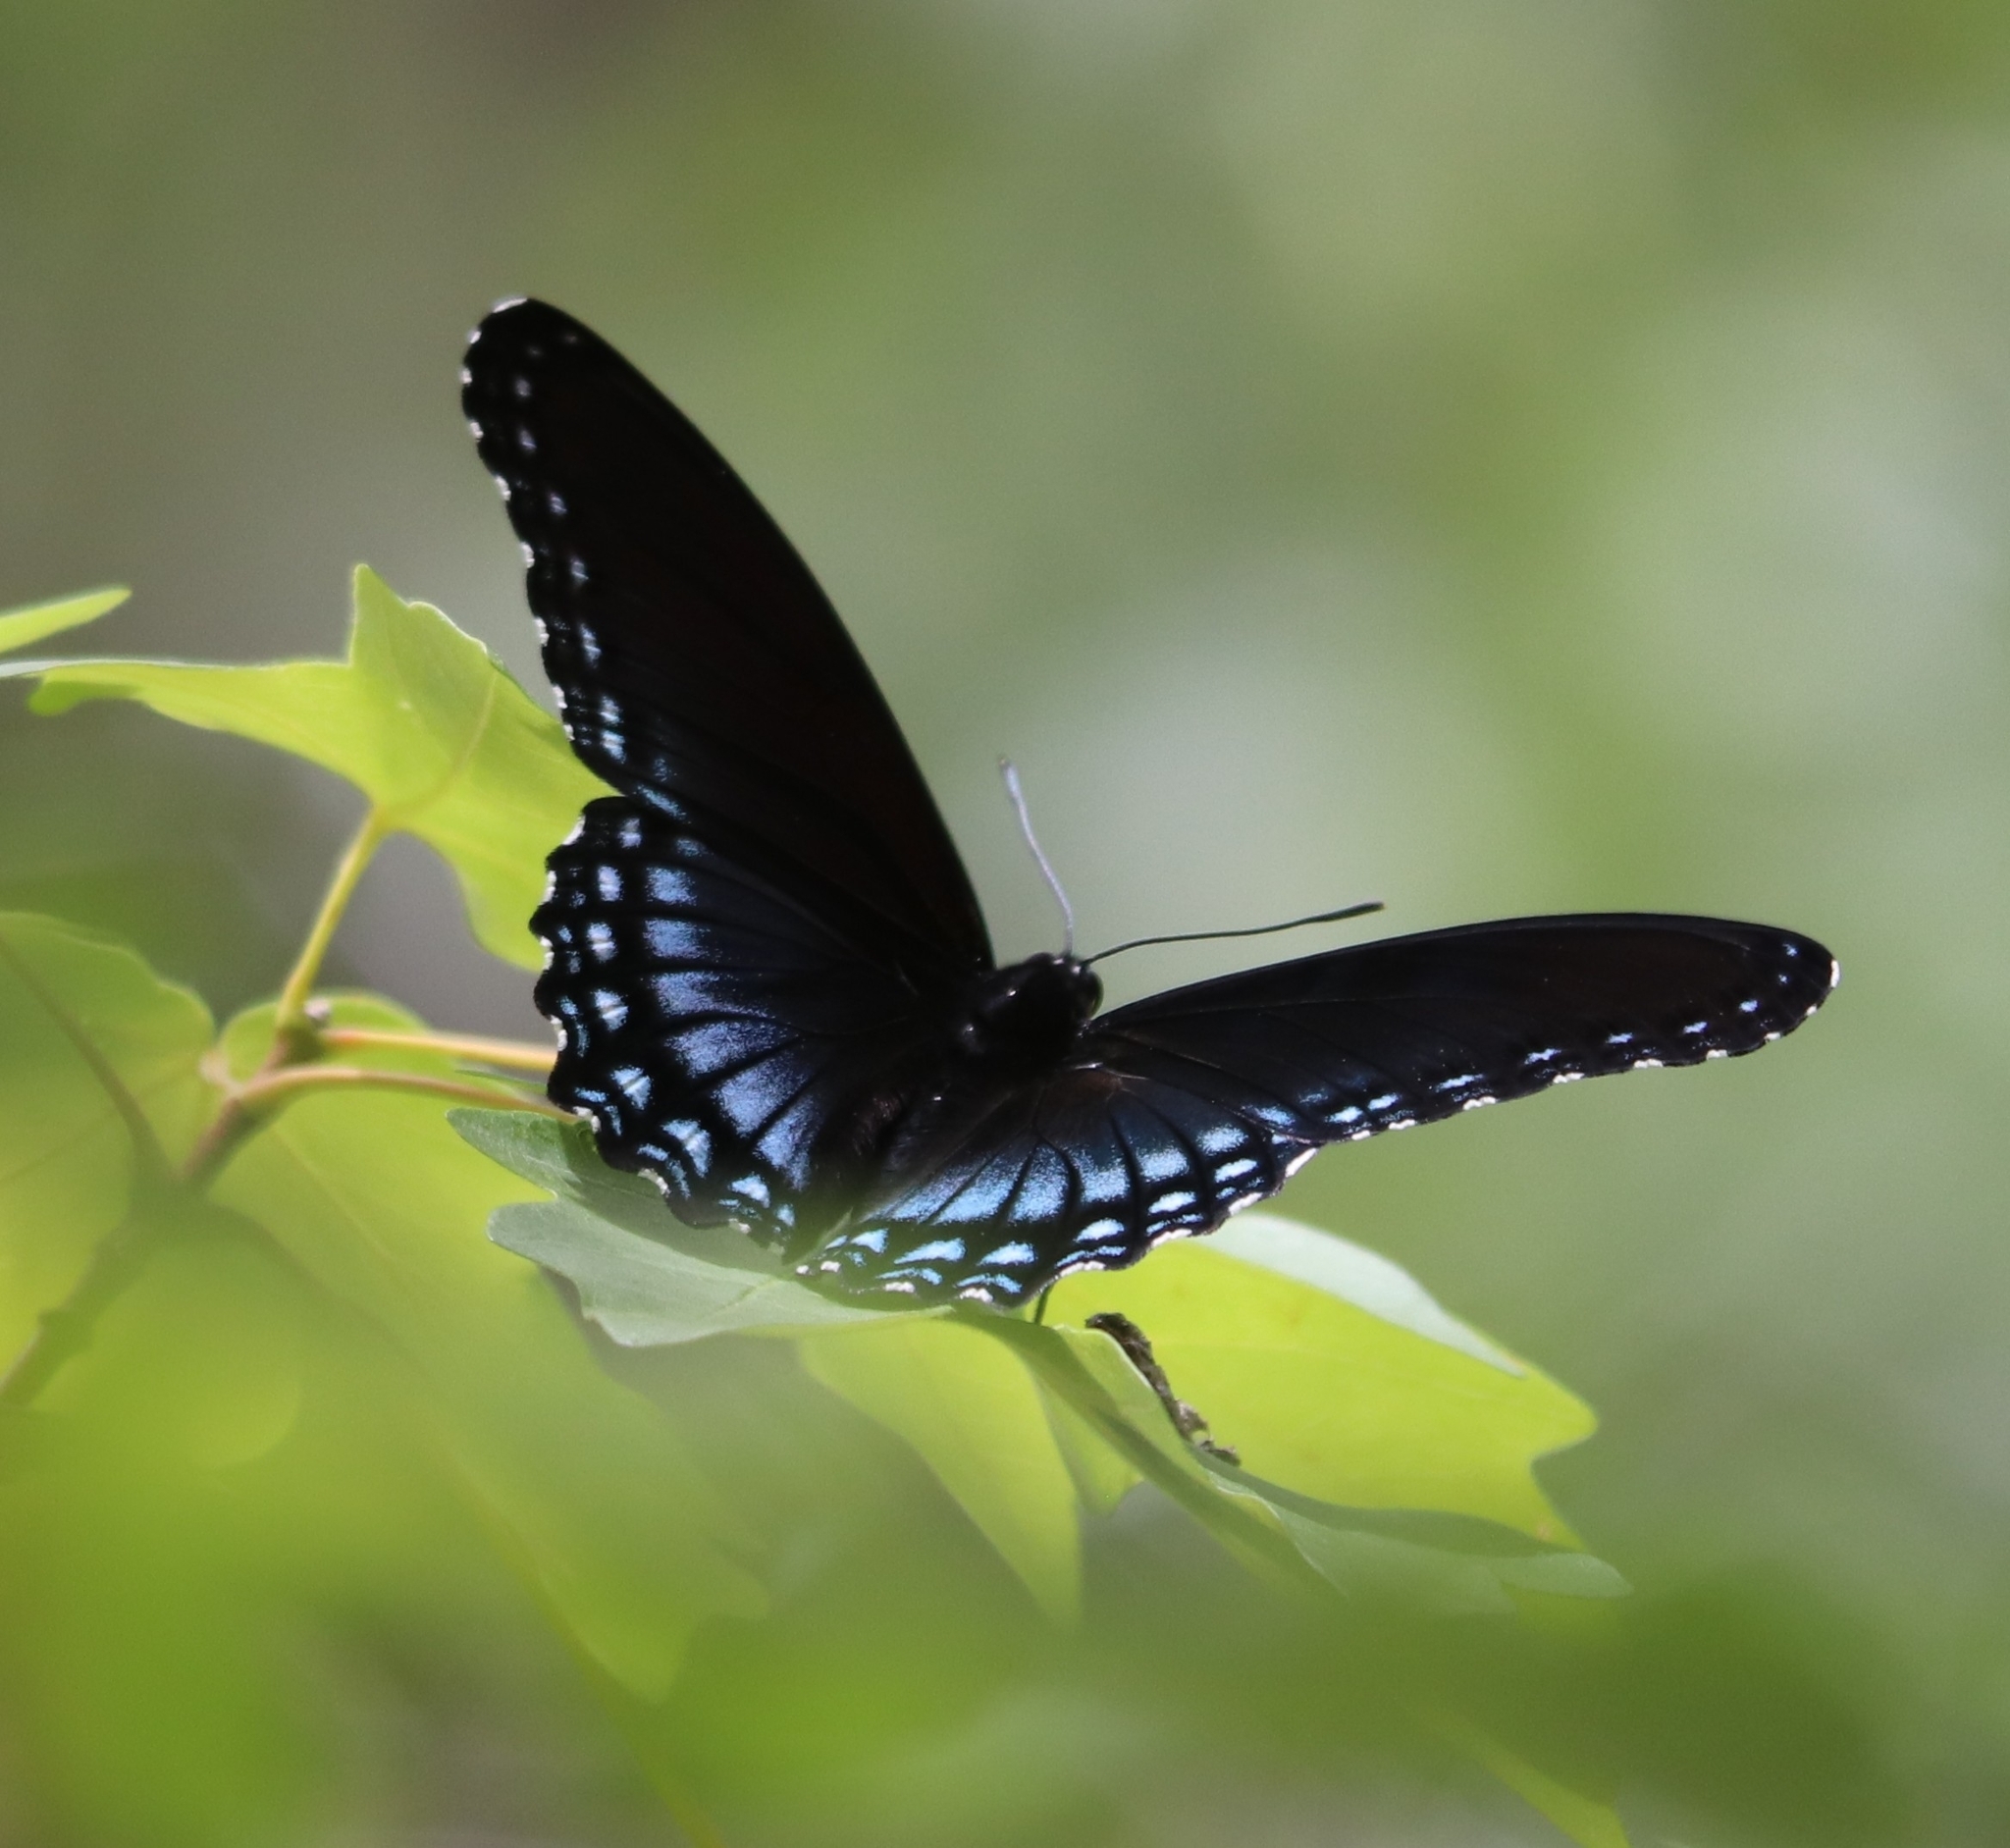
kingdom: Animalia
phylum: Arthropoda
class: Insecta
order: Lepidoptera
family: Nymphalidae
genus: Limenitis
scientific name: Limenitis arthemis
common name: Red-spotted admiral
